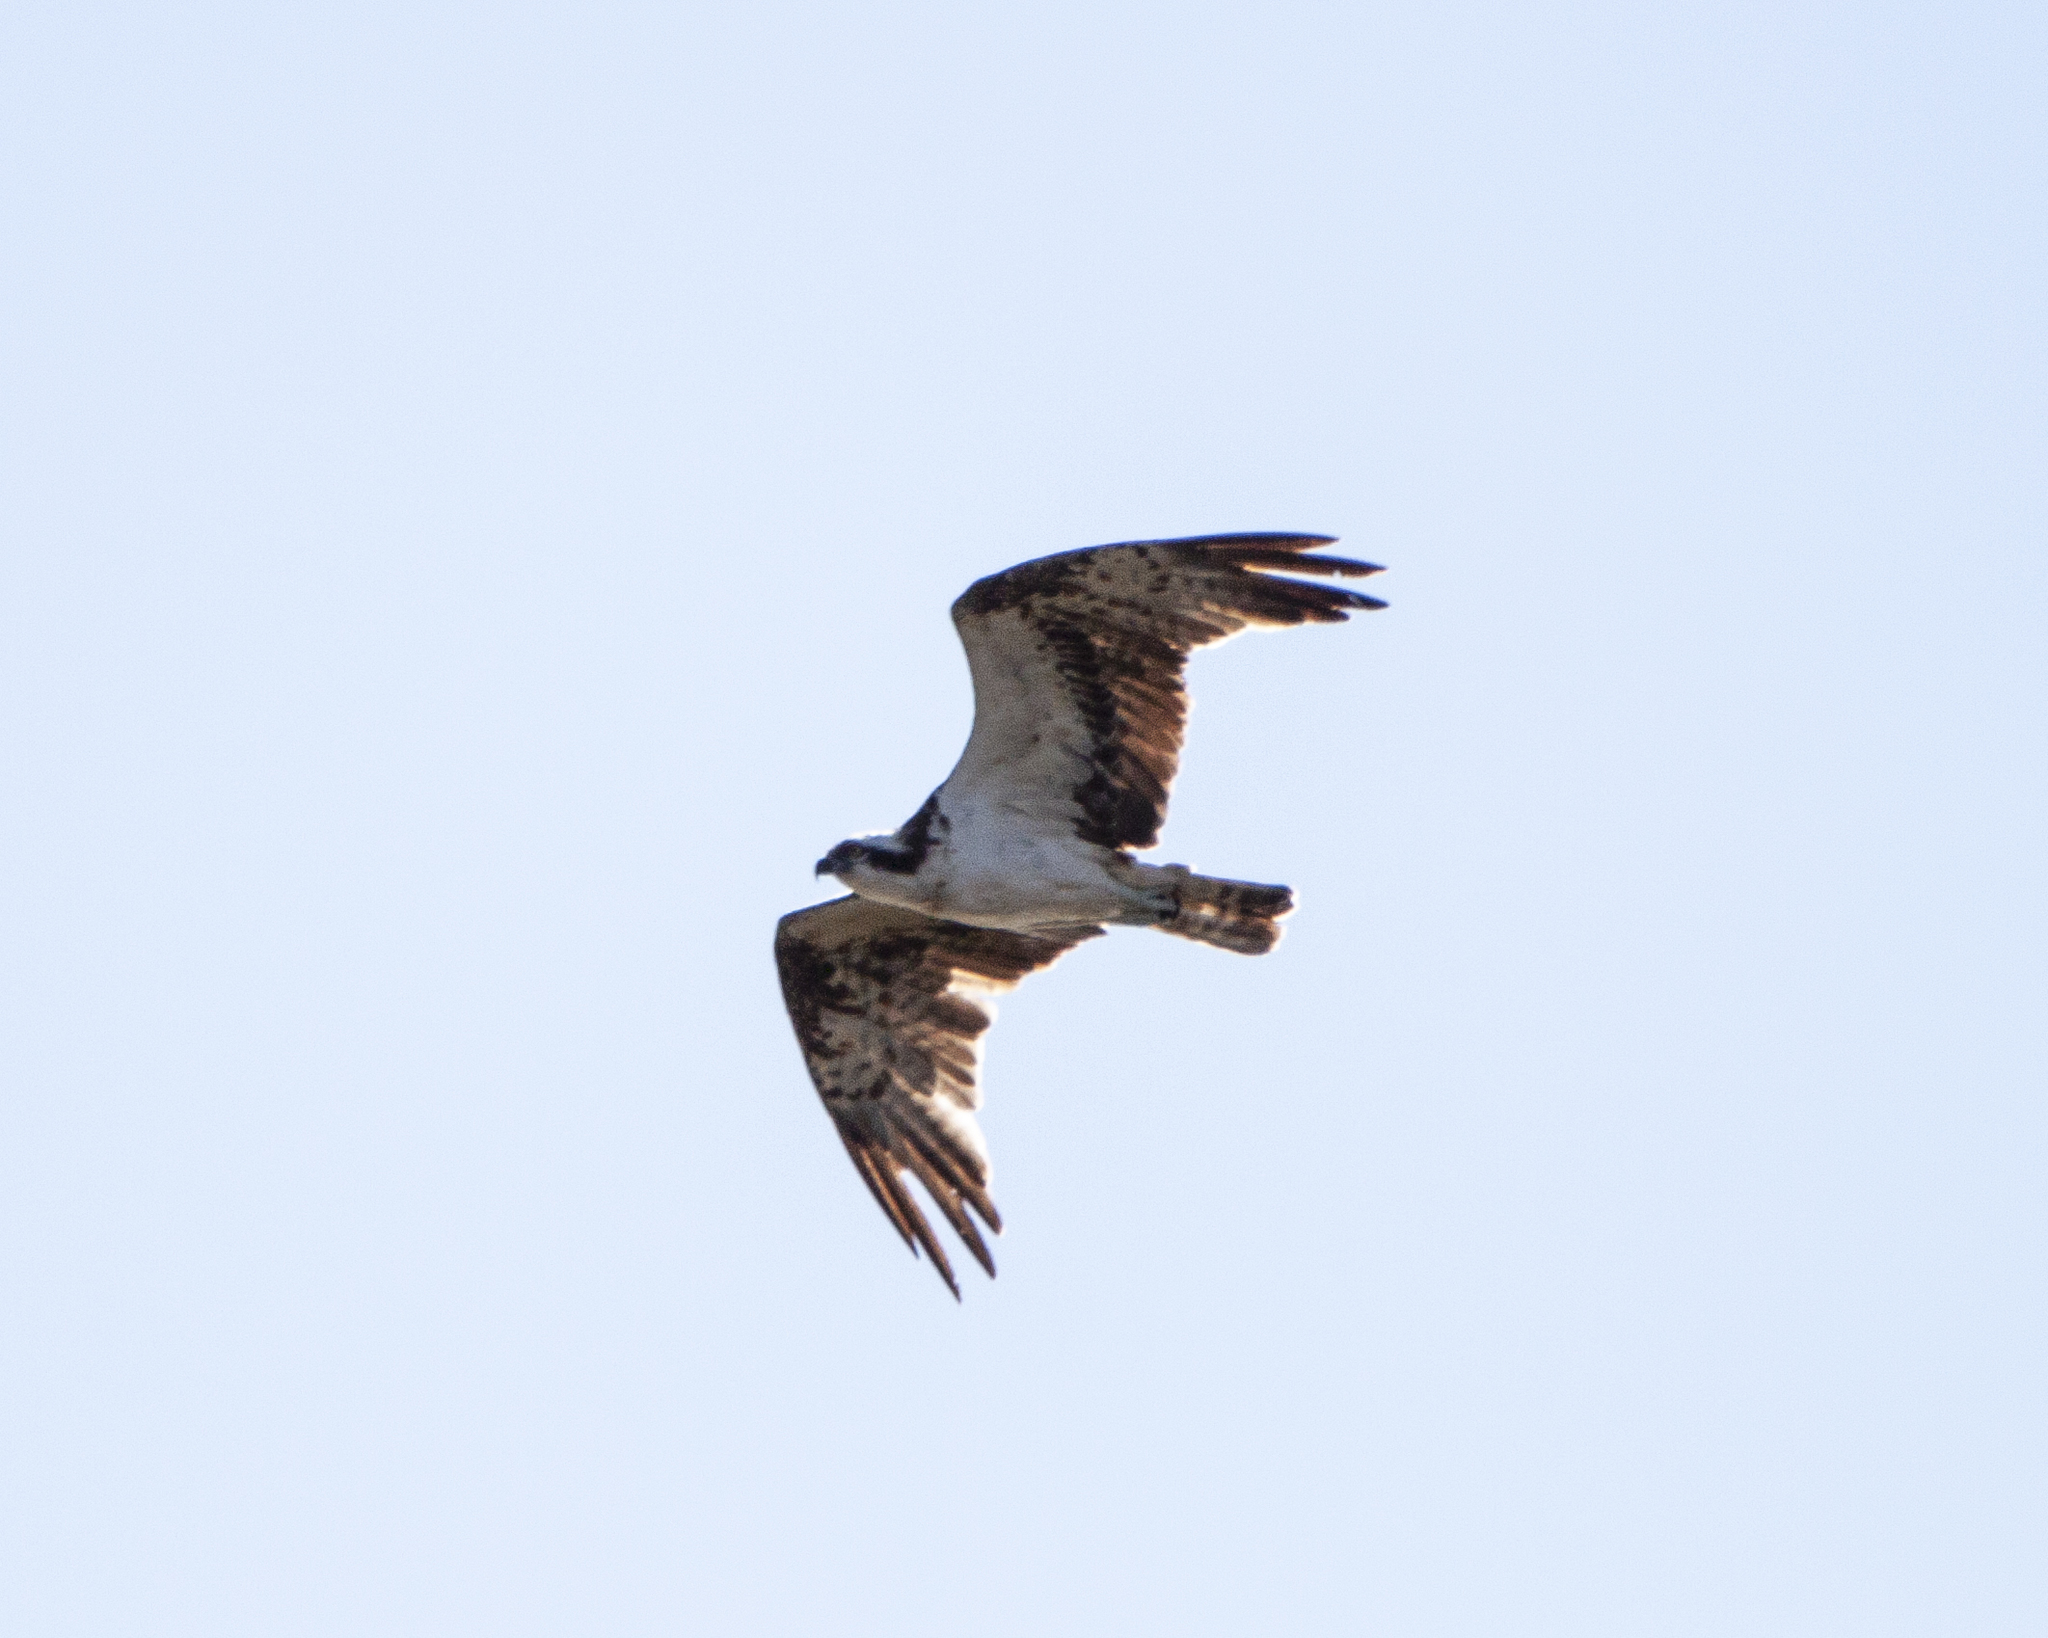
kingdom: Animalia
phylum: Chordata
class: Aves
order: Accipitriformes
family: Pandionidae
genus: Pandion
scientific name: Pandion haliaetus
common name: Osprey
